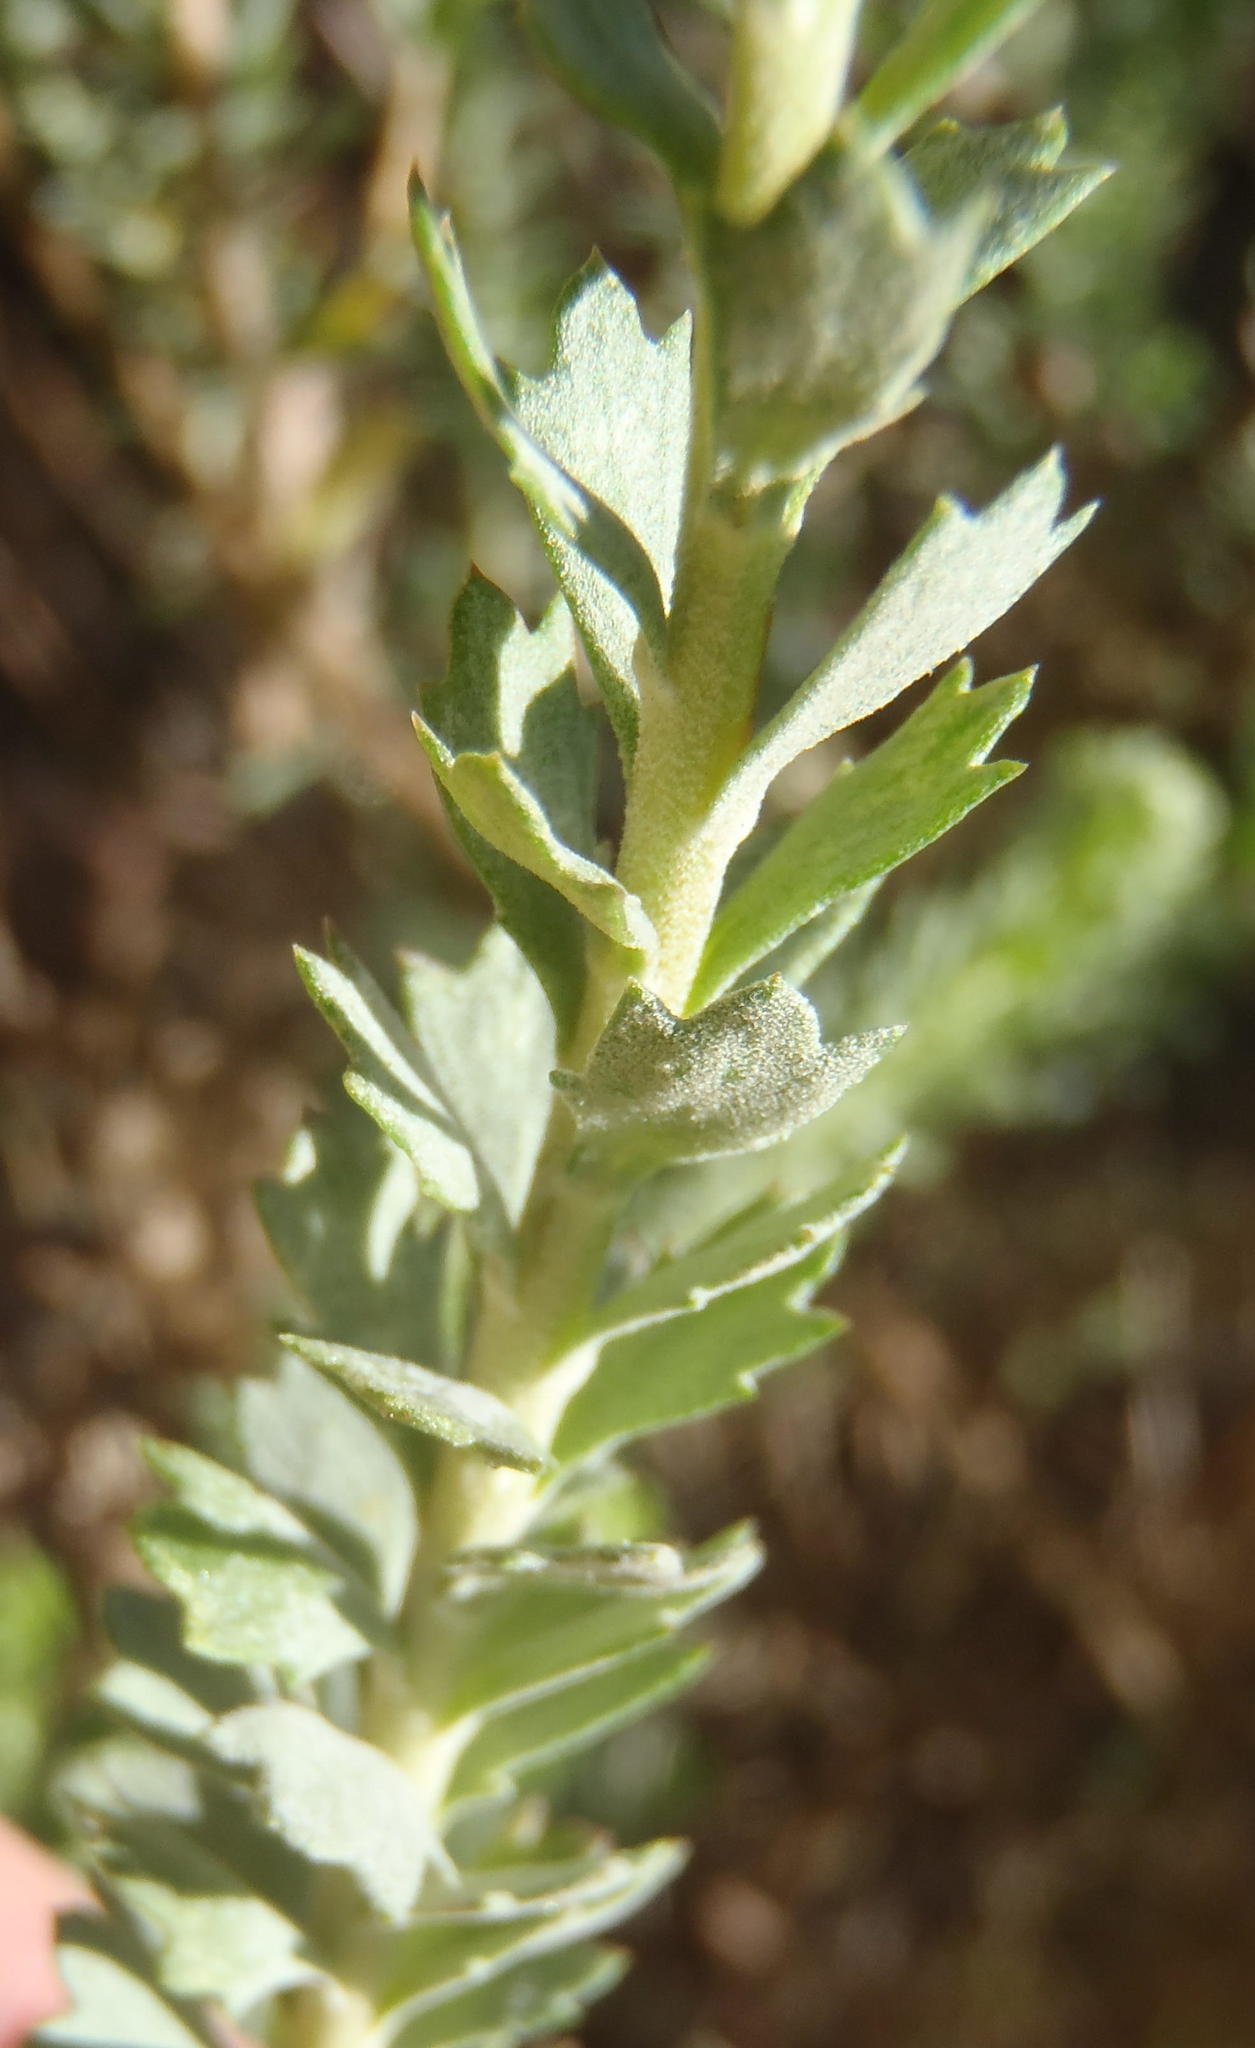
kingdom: Plantae
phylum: Tracheophyta
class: Magnoliopsida
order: Asterales
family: Asteraceae
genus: Athanasia
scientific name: Athanasia trifurcata
